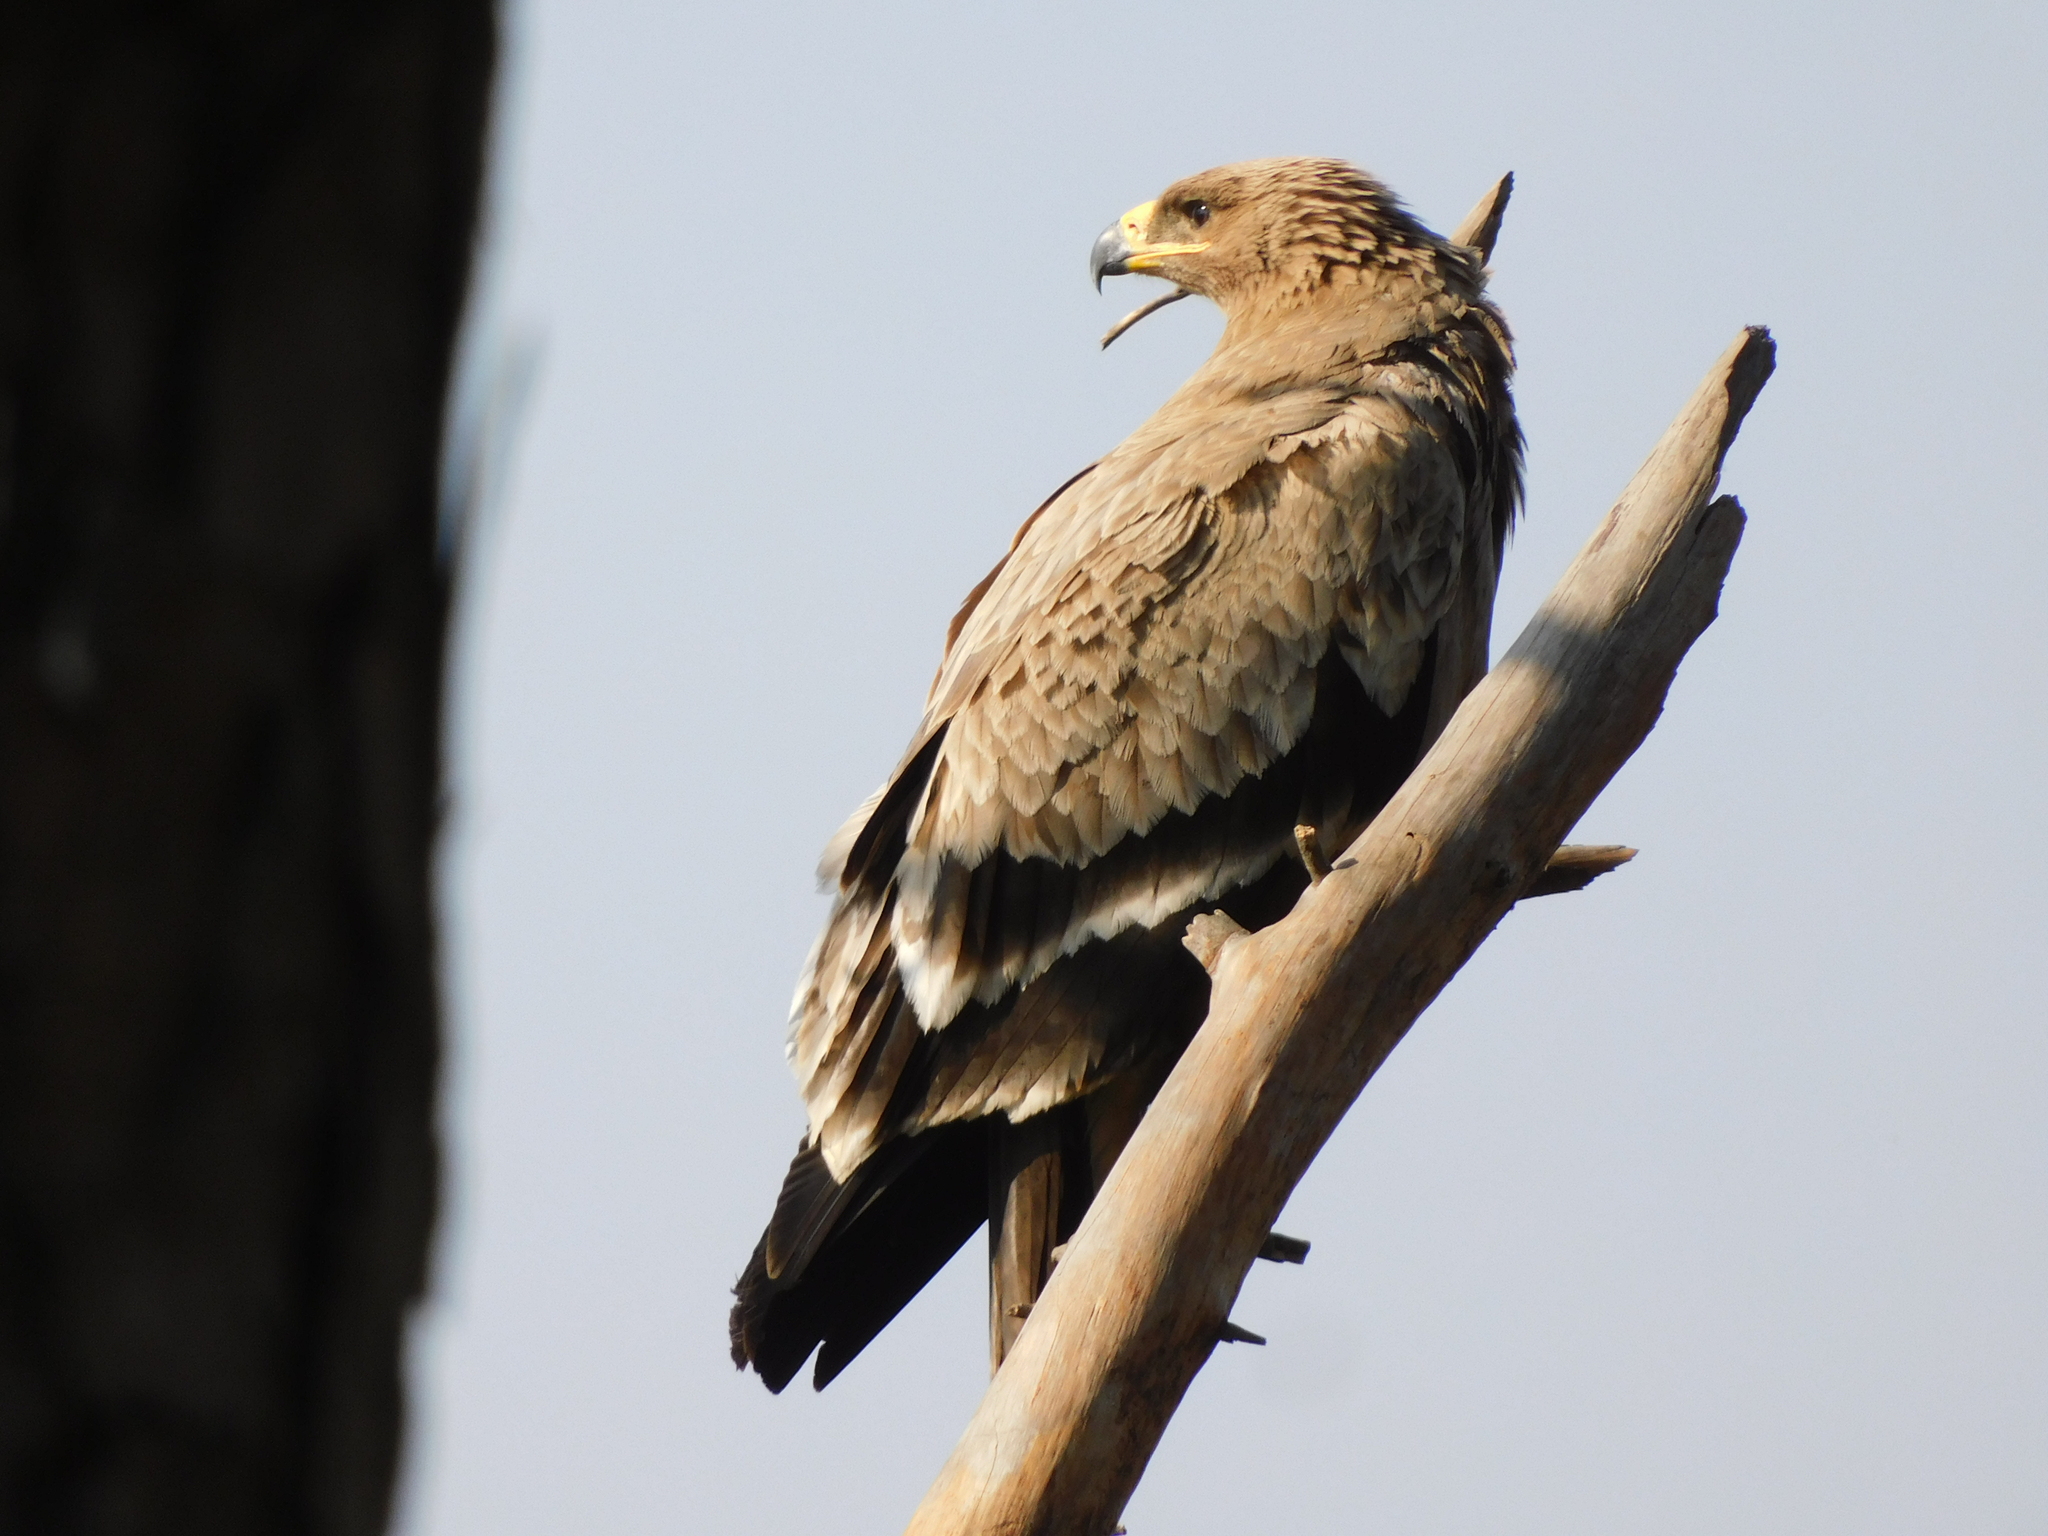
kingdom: Animalia
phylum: Chordata
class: Aves
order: Accipitriformes
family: Accipitridae
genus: Aquila
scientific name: Aquila nipalensis
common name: Steppe eagle
